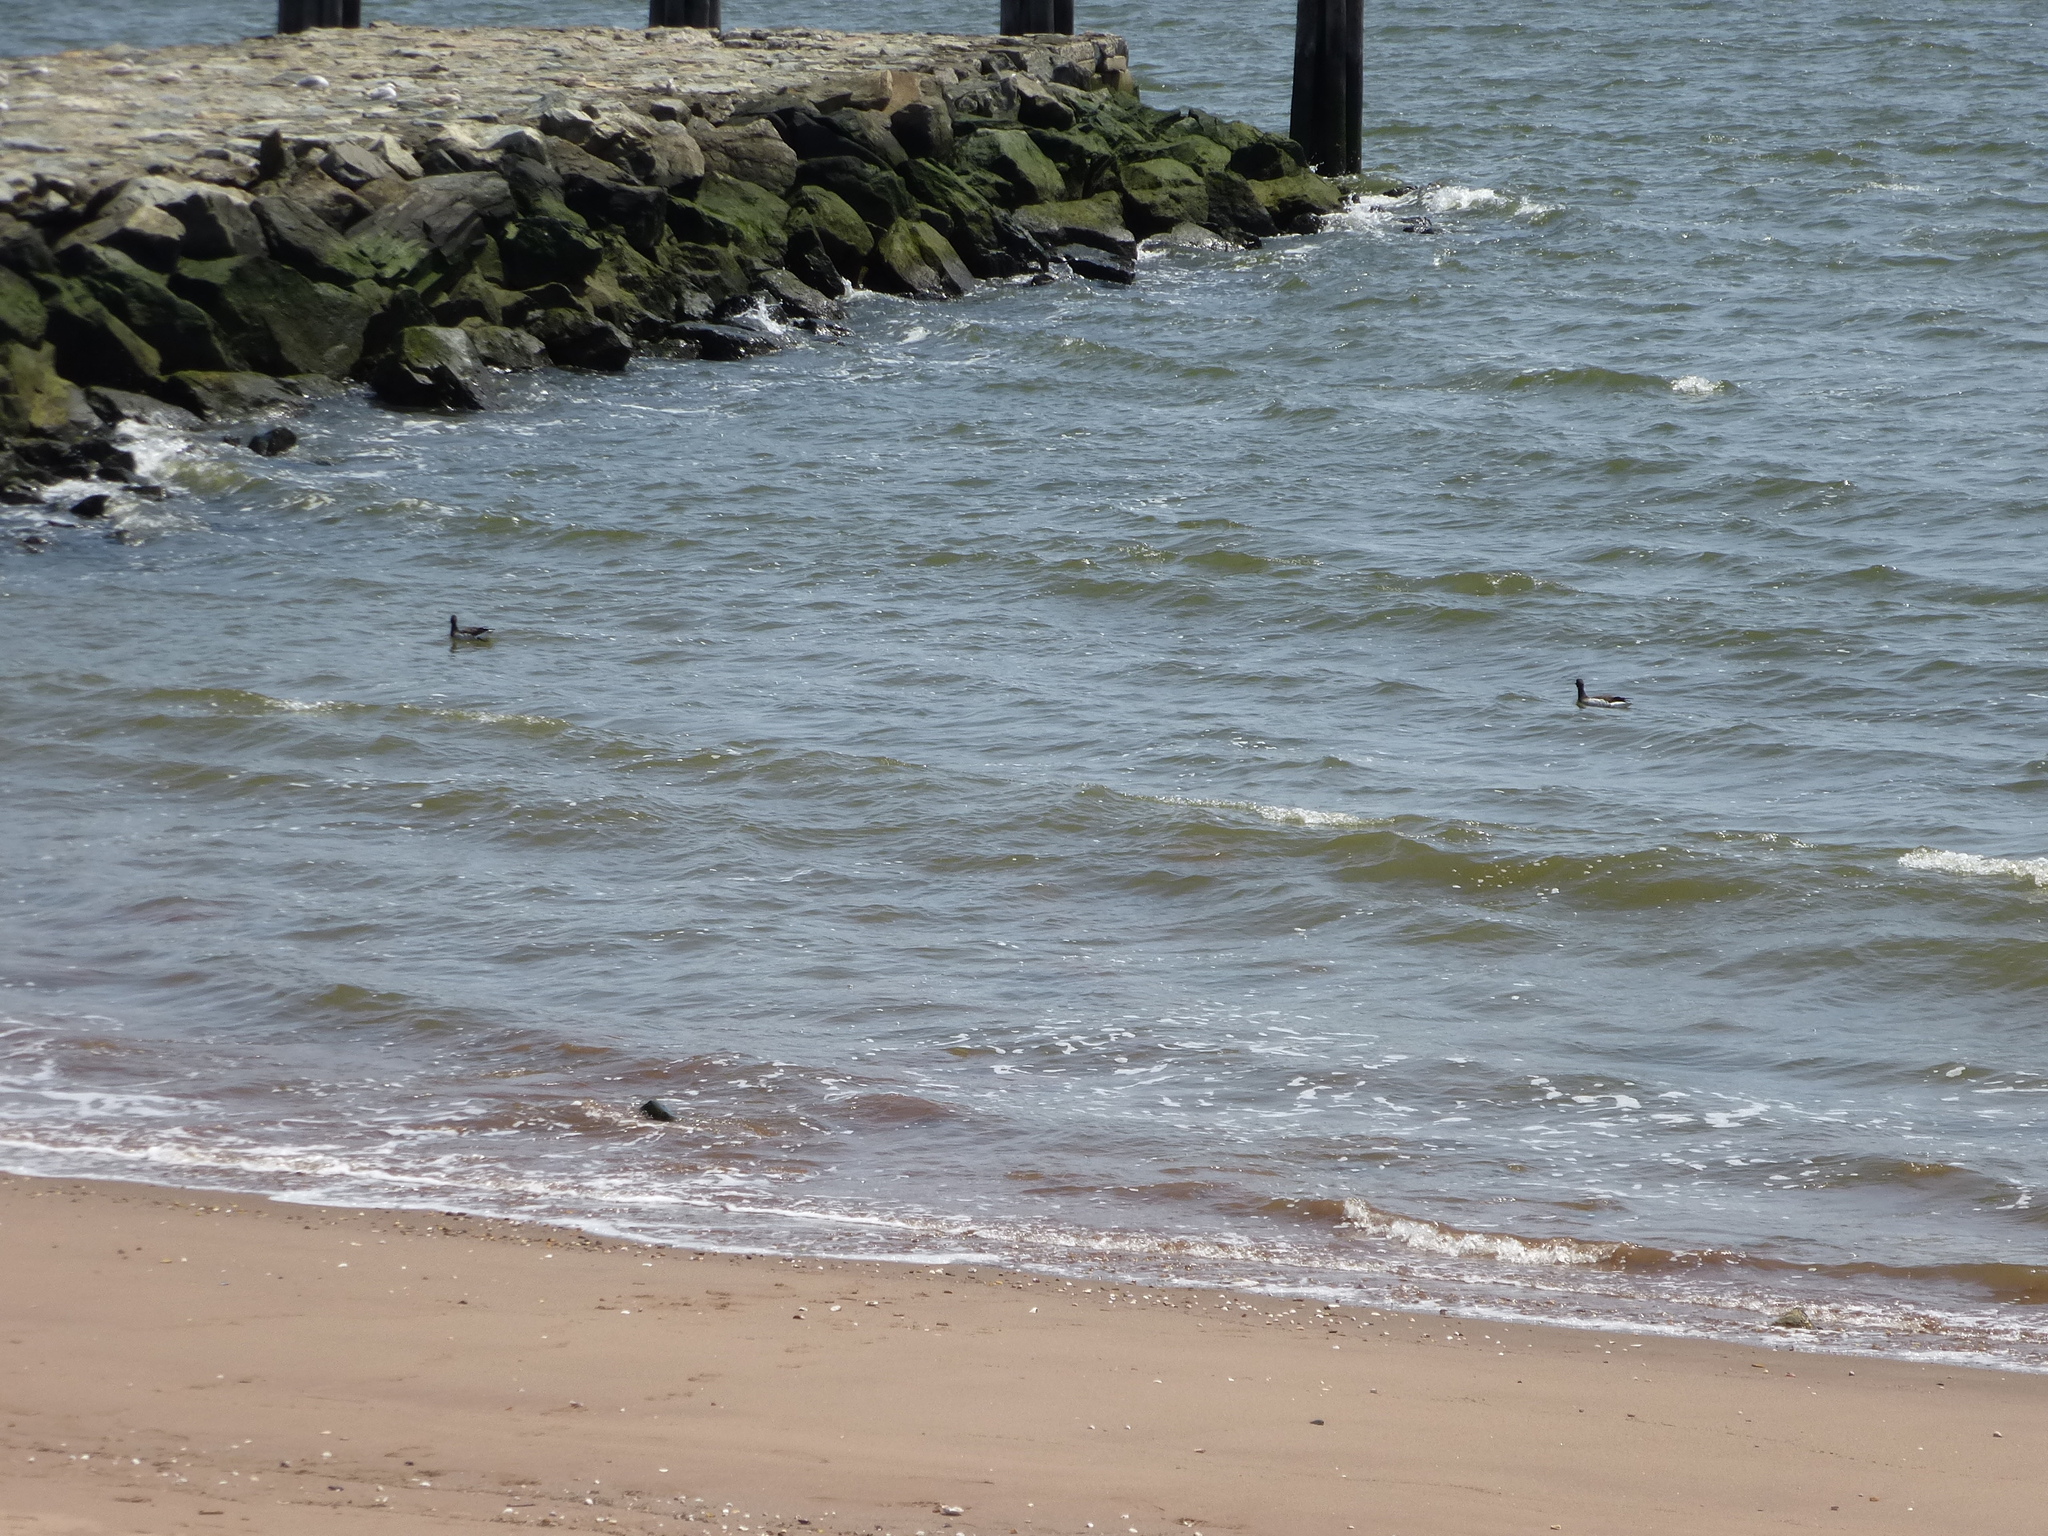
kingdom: Animalia
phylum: Chordata
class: Aves
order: Anseriformes
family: Anatidae
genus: Branta
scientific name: Branta bernicla
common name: Brant goose
